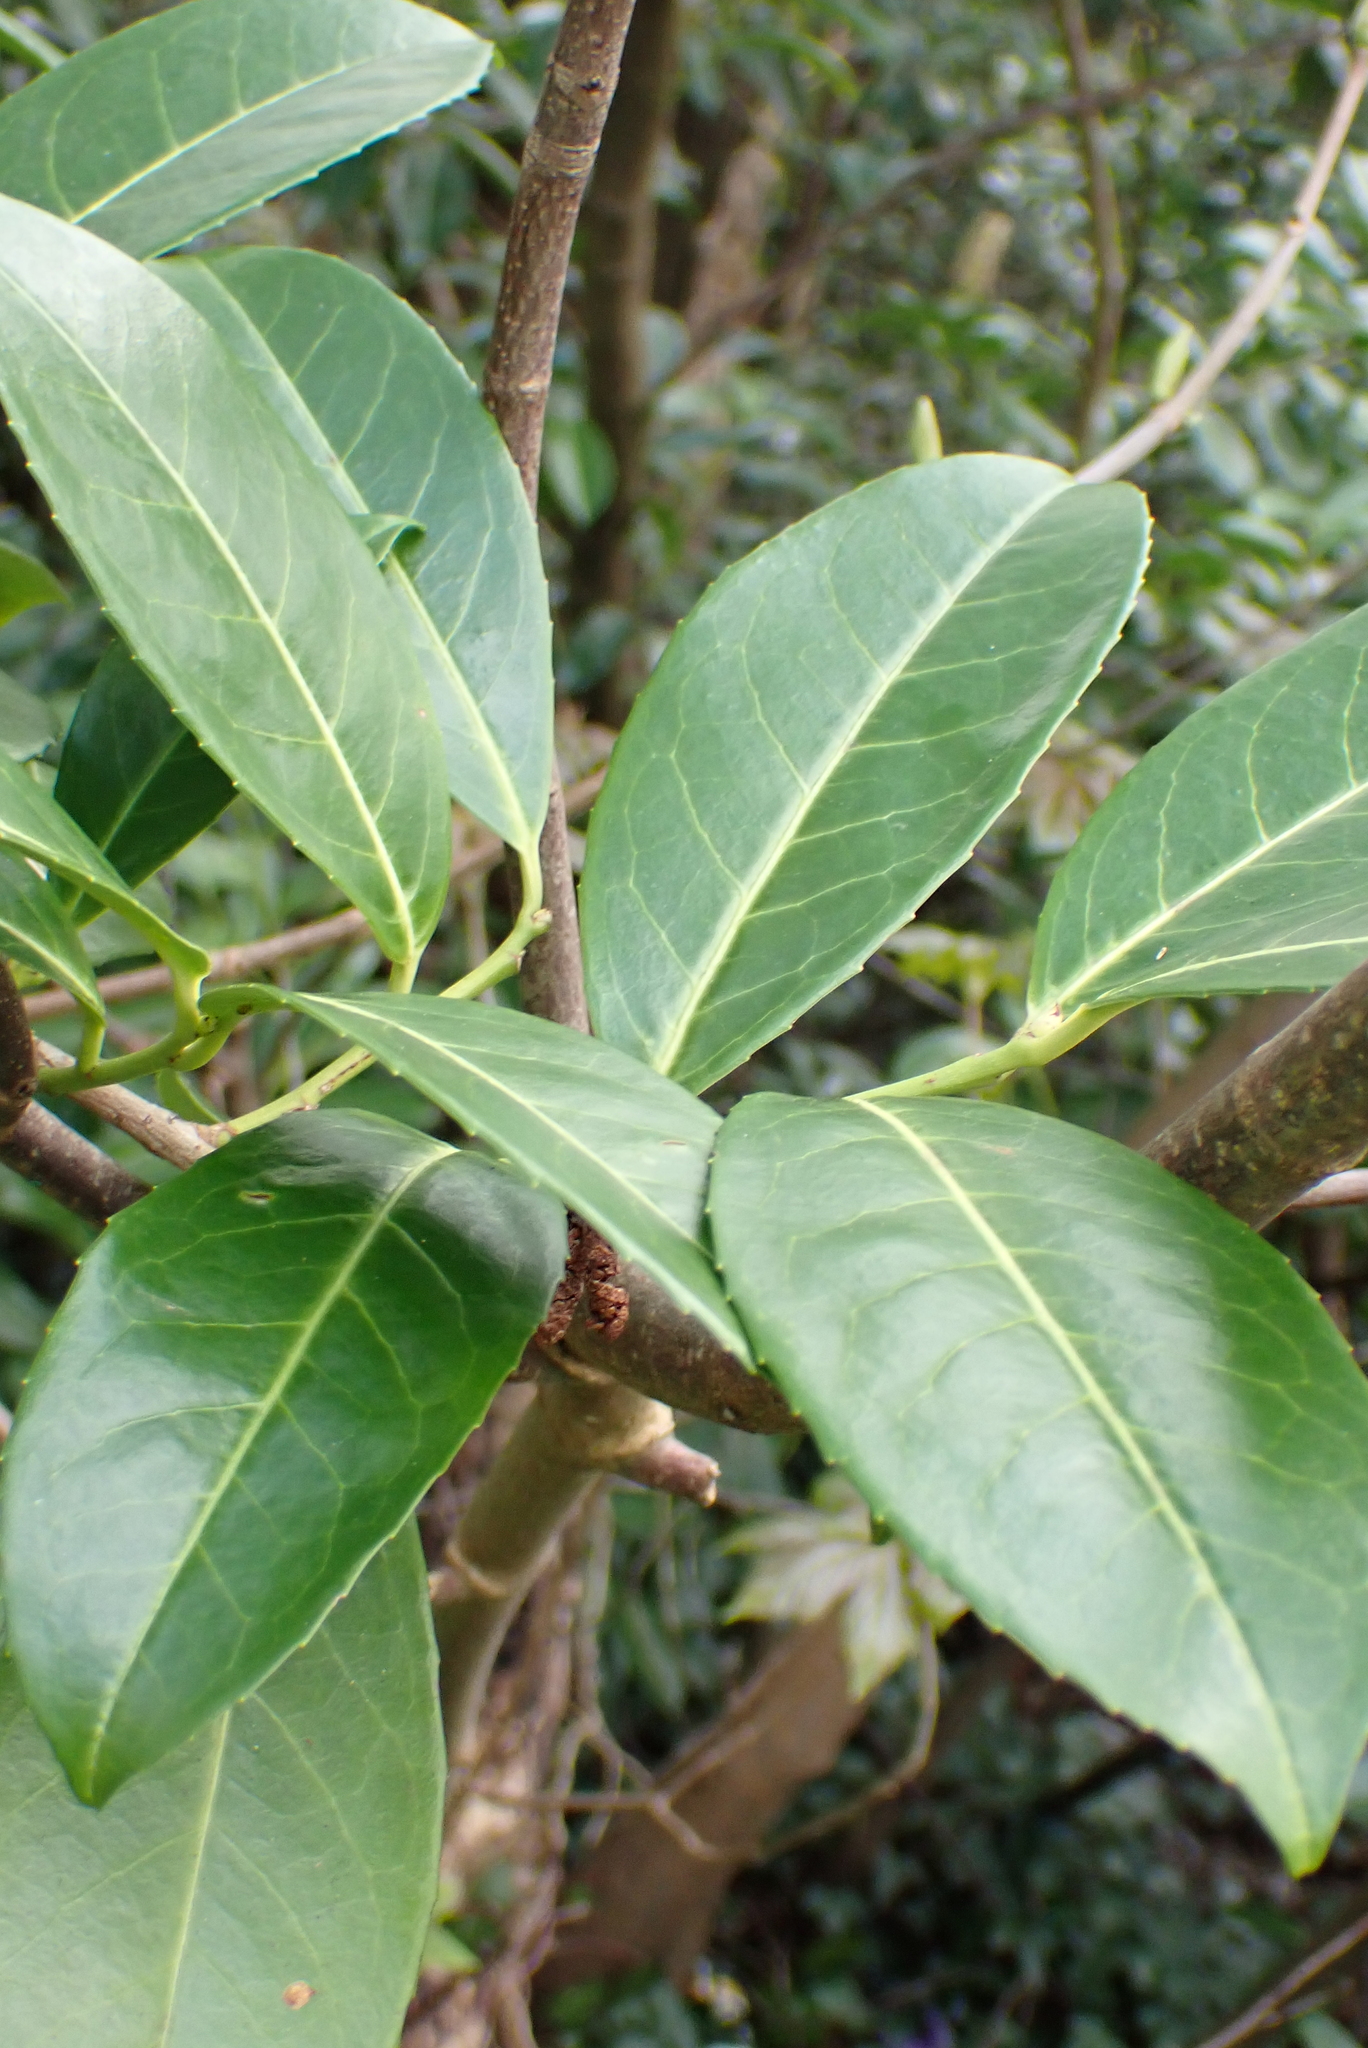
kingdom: Plantae
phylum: Tracheophyta
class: Magnoliopsida
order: Rosales
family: Rosaceae
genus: Prunus
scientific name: Prunus laurocerasus
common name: Cherry laurel
